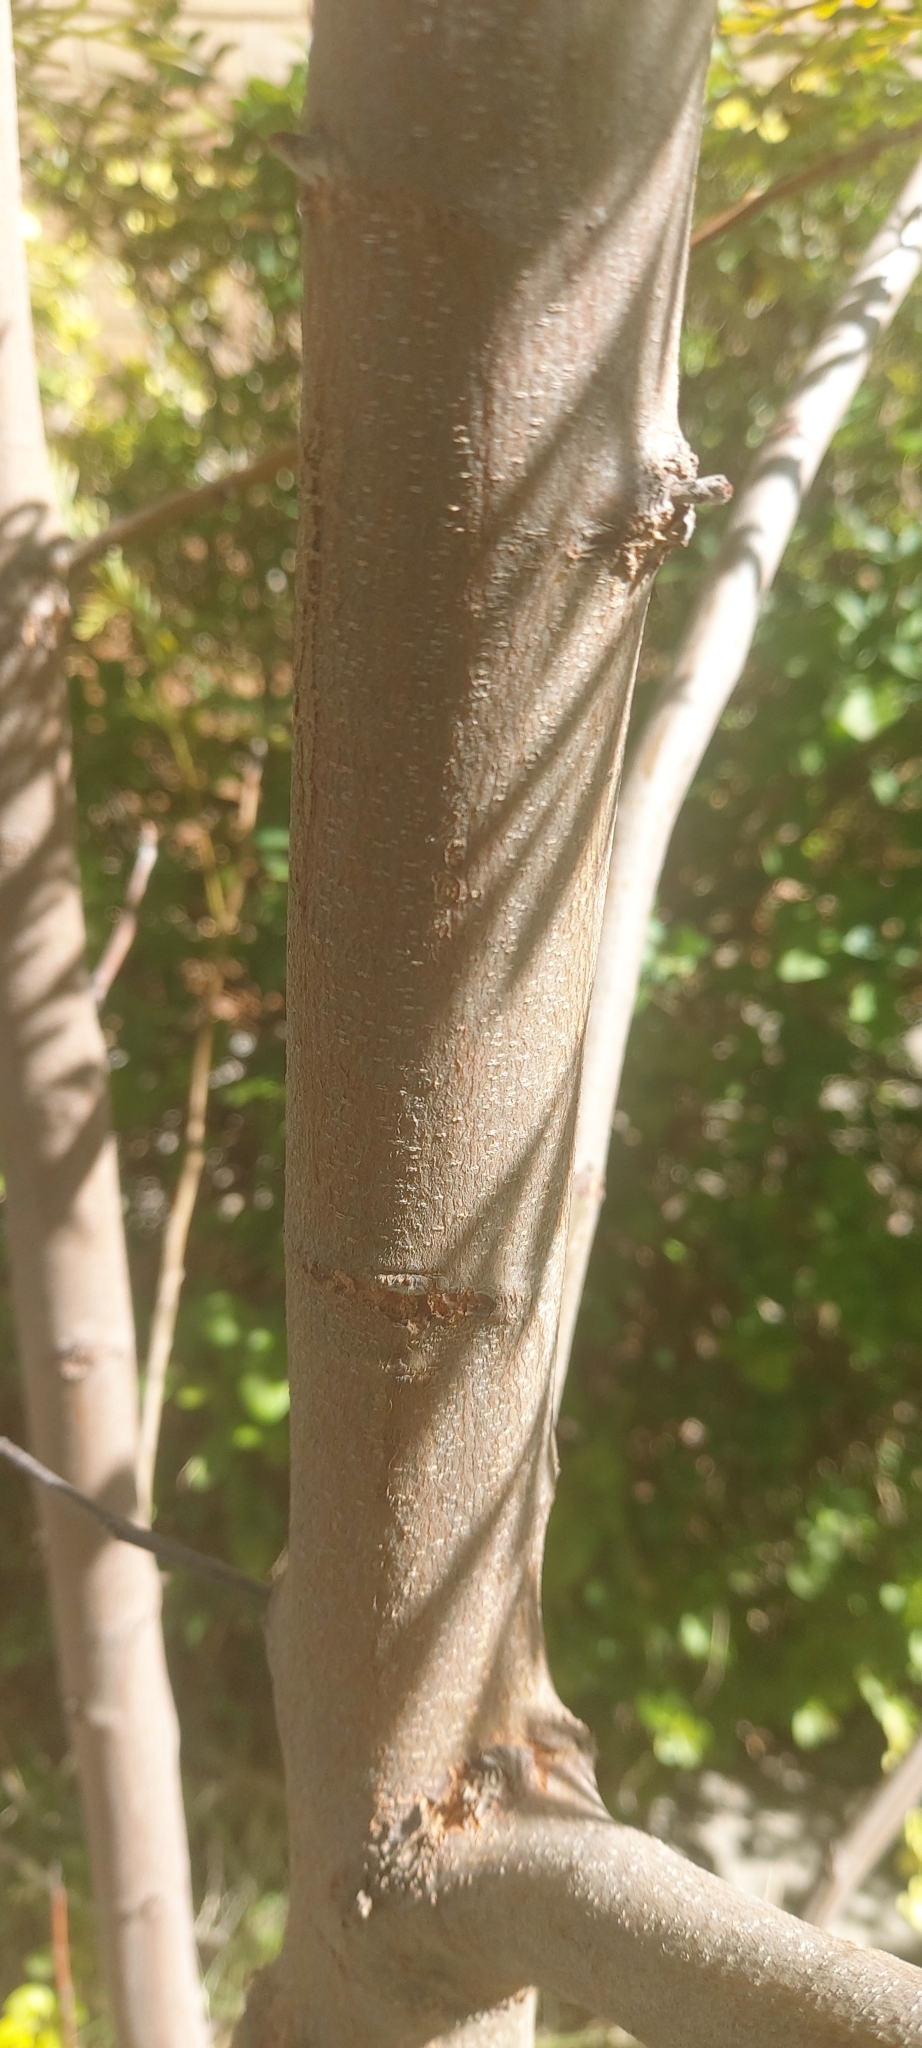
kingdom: Plantae
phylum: Tracheophyta
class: Magnoliopsida
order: Proteales
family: Proteaceae
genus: Grevillea
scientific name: Grevillea robusta
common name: Silkoak
